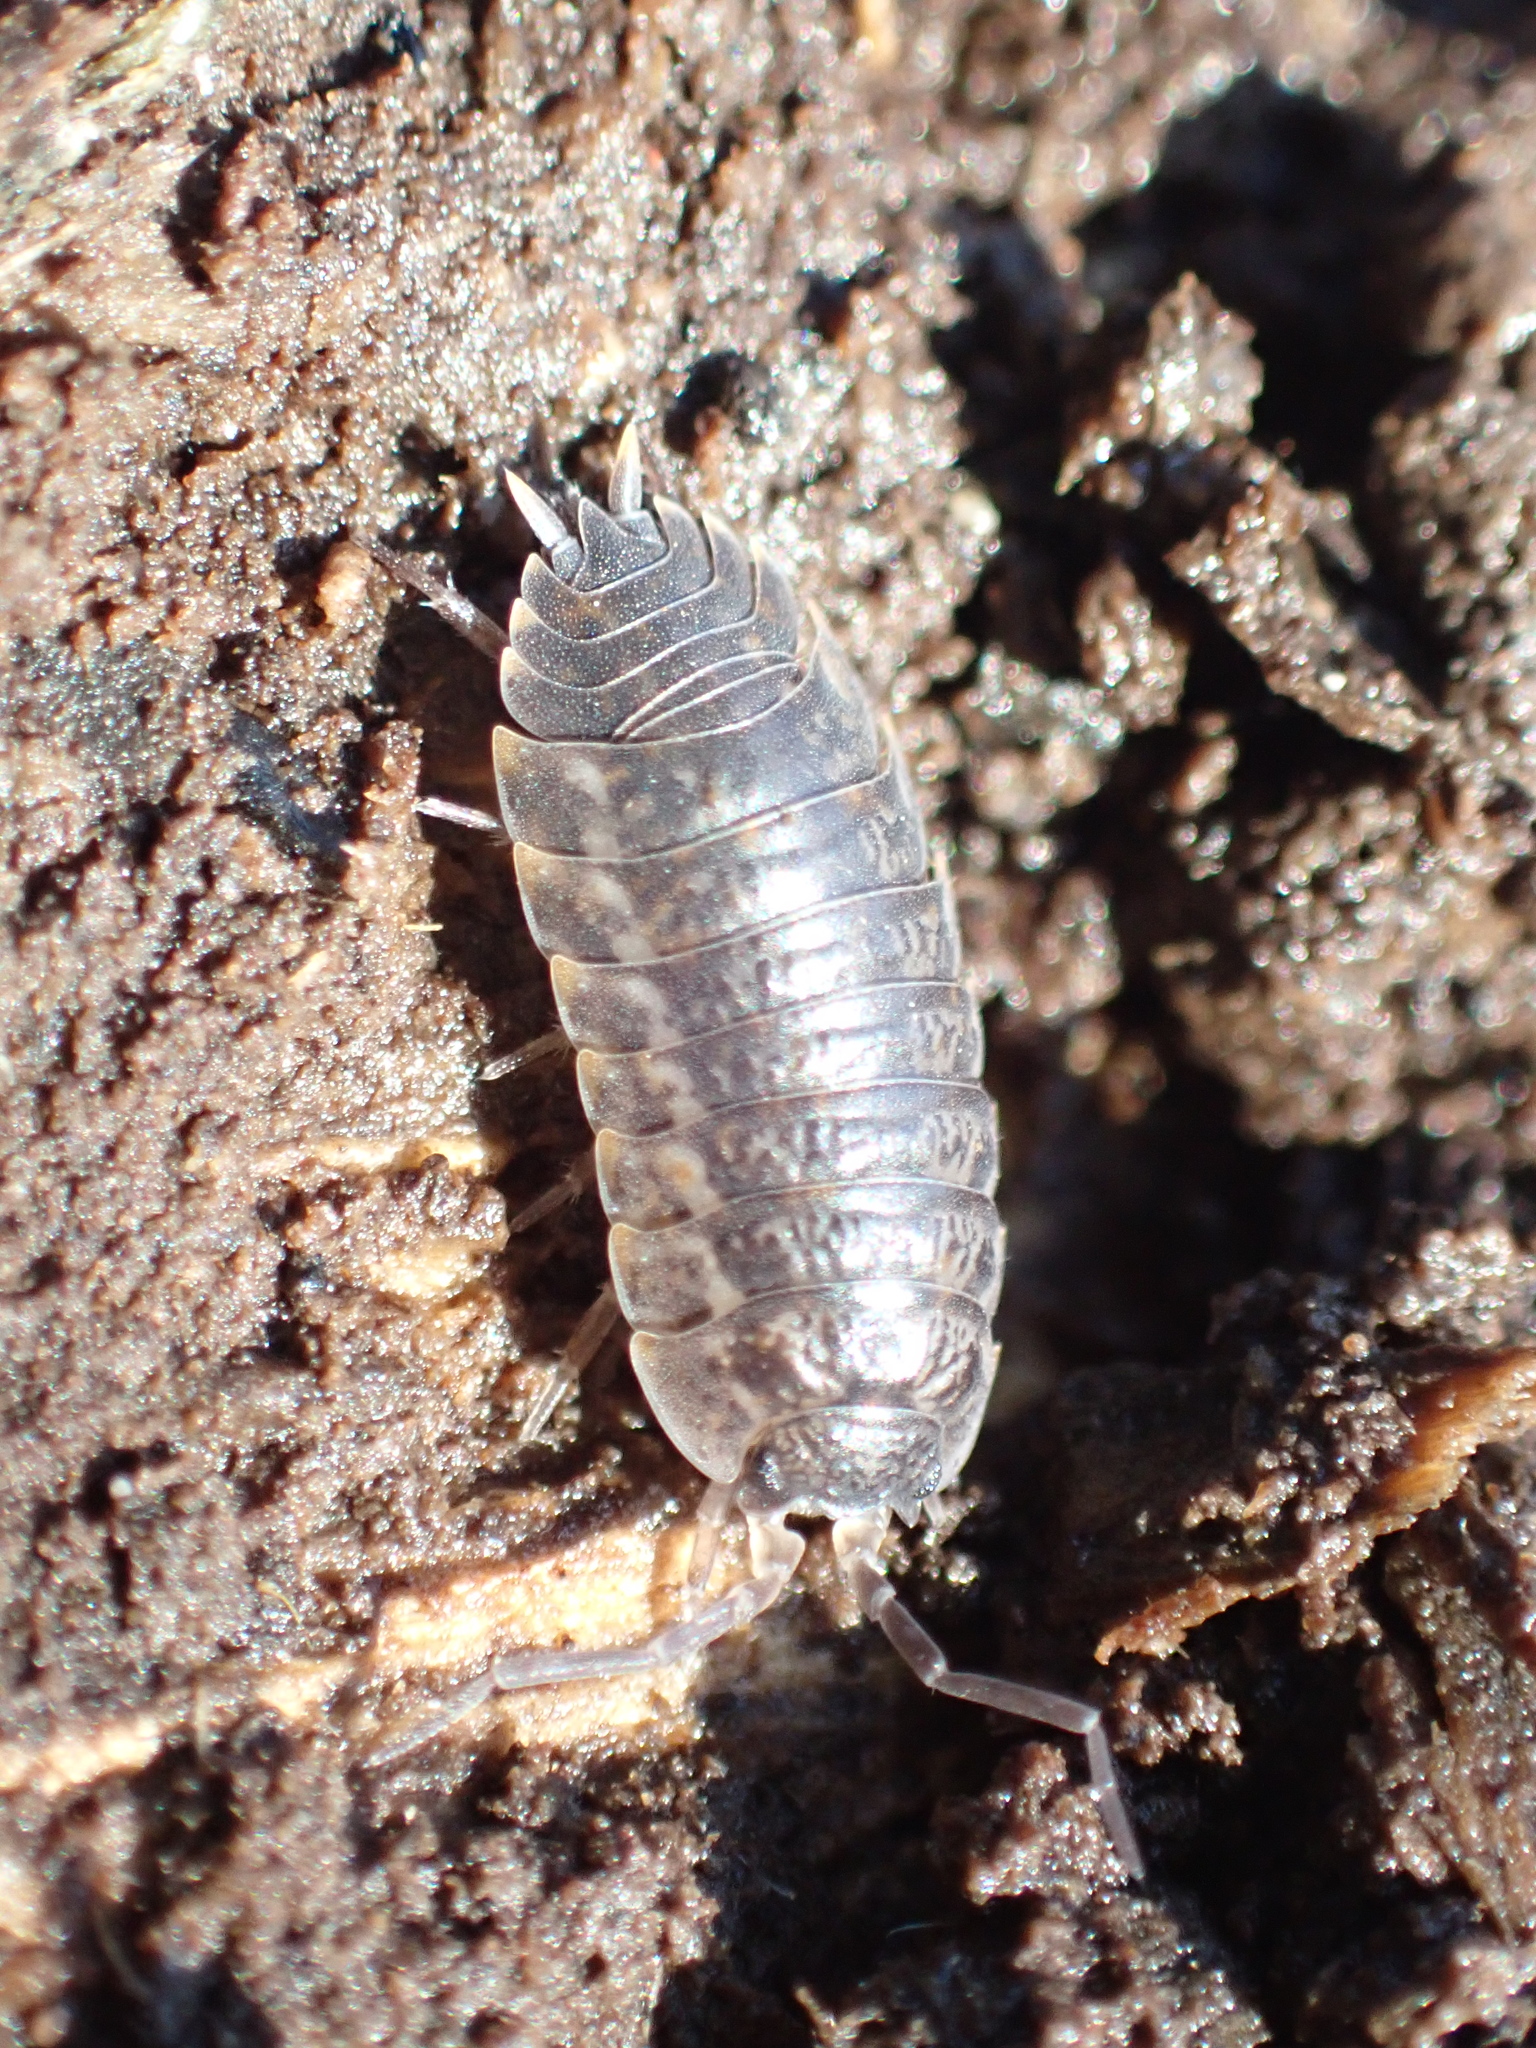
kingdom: Animalia
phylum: Arthropoda
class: Malacostraca
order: Isopoda
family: Trachelipodidae
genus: Trachelipus
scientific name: Trachelipus rathkii
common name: Isopod
